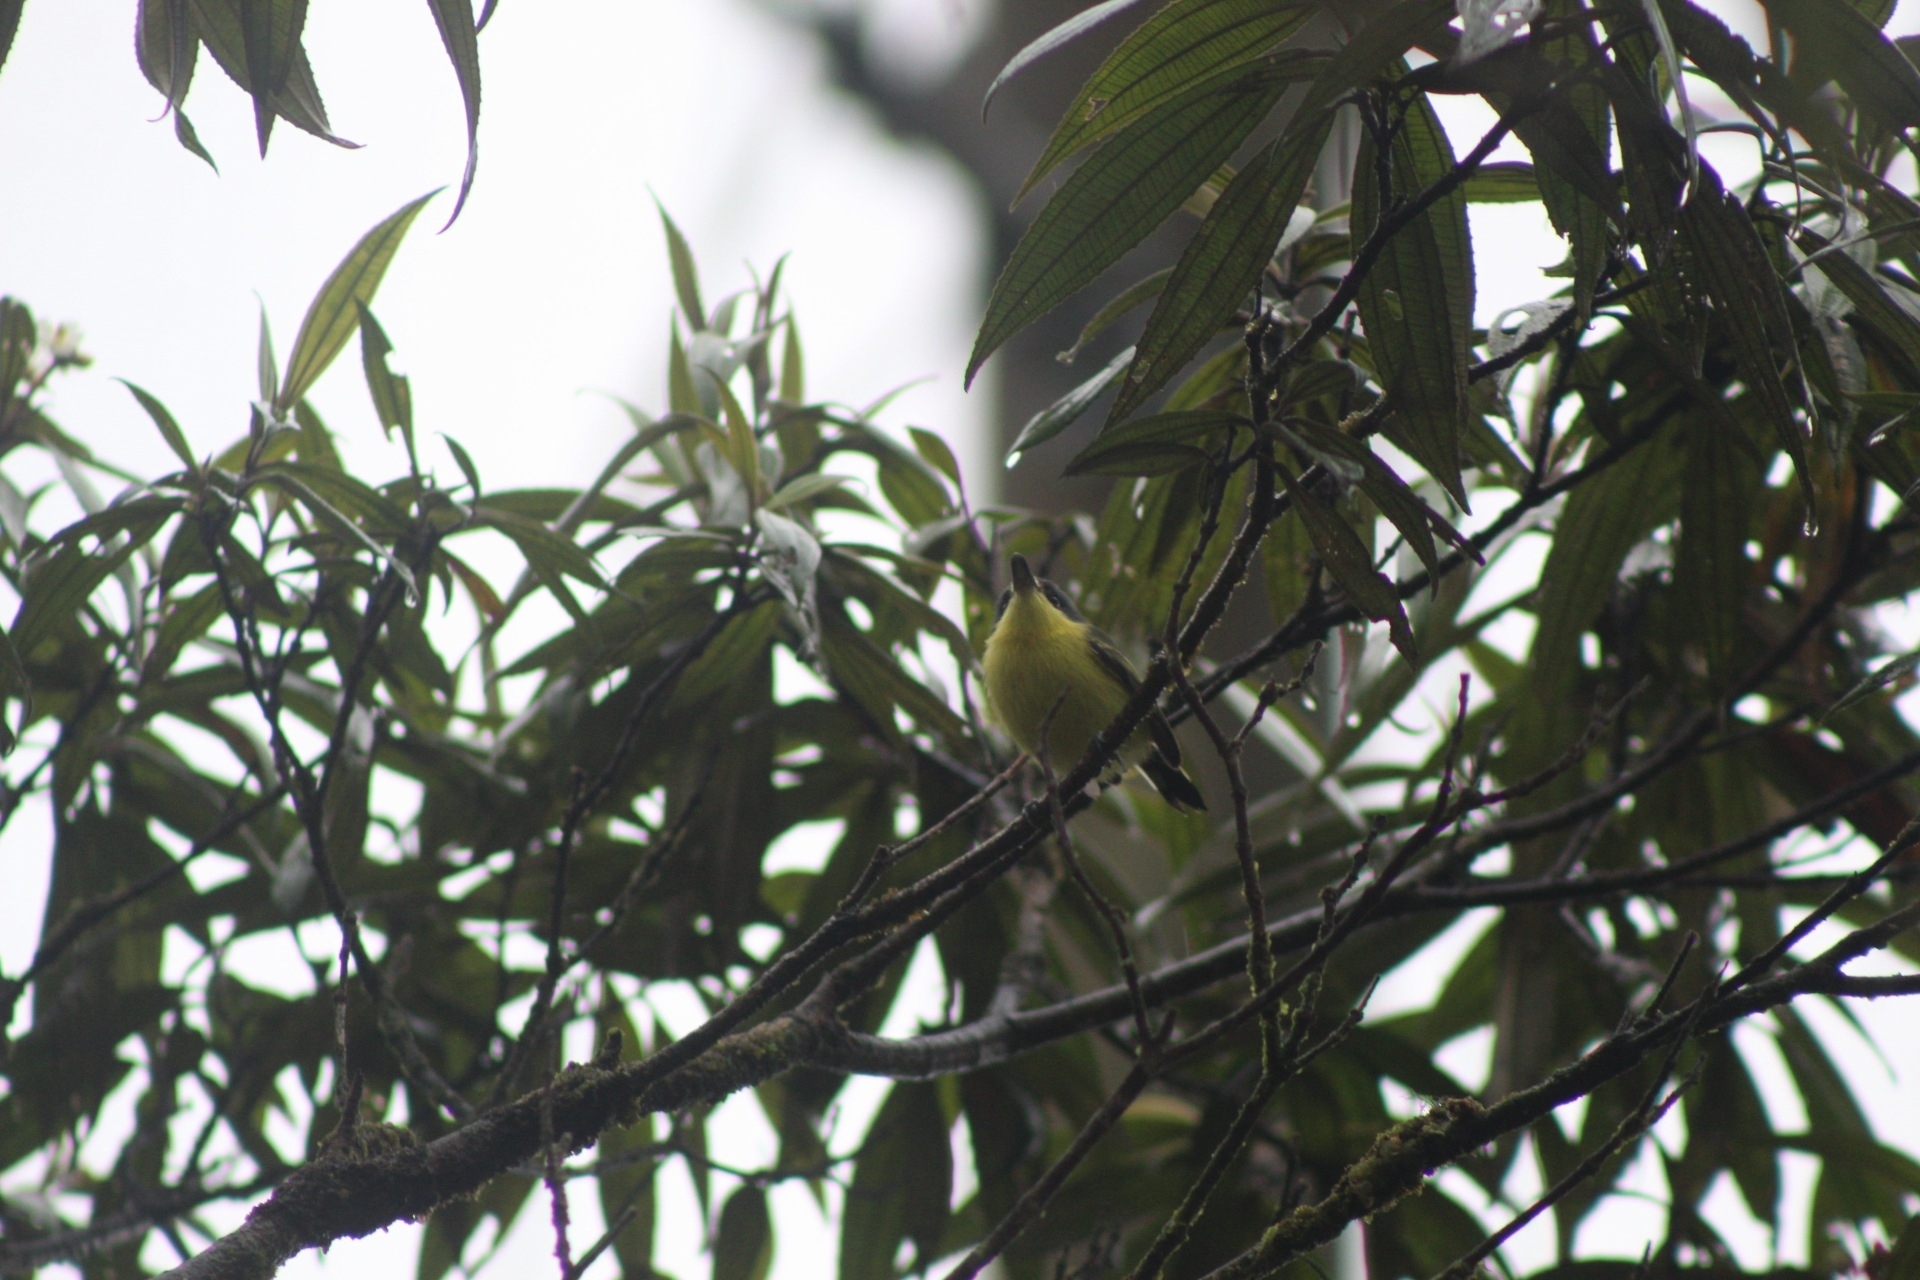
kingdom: Animalia
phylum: Chordata
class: Aves
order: Passeriformes
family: Tyrannidae
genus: Todirostrum
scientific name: Todirostrum cinereum
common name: Common tody-flycatcher
